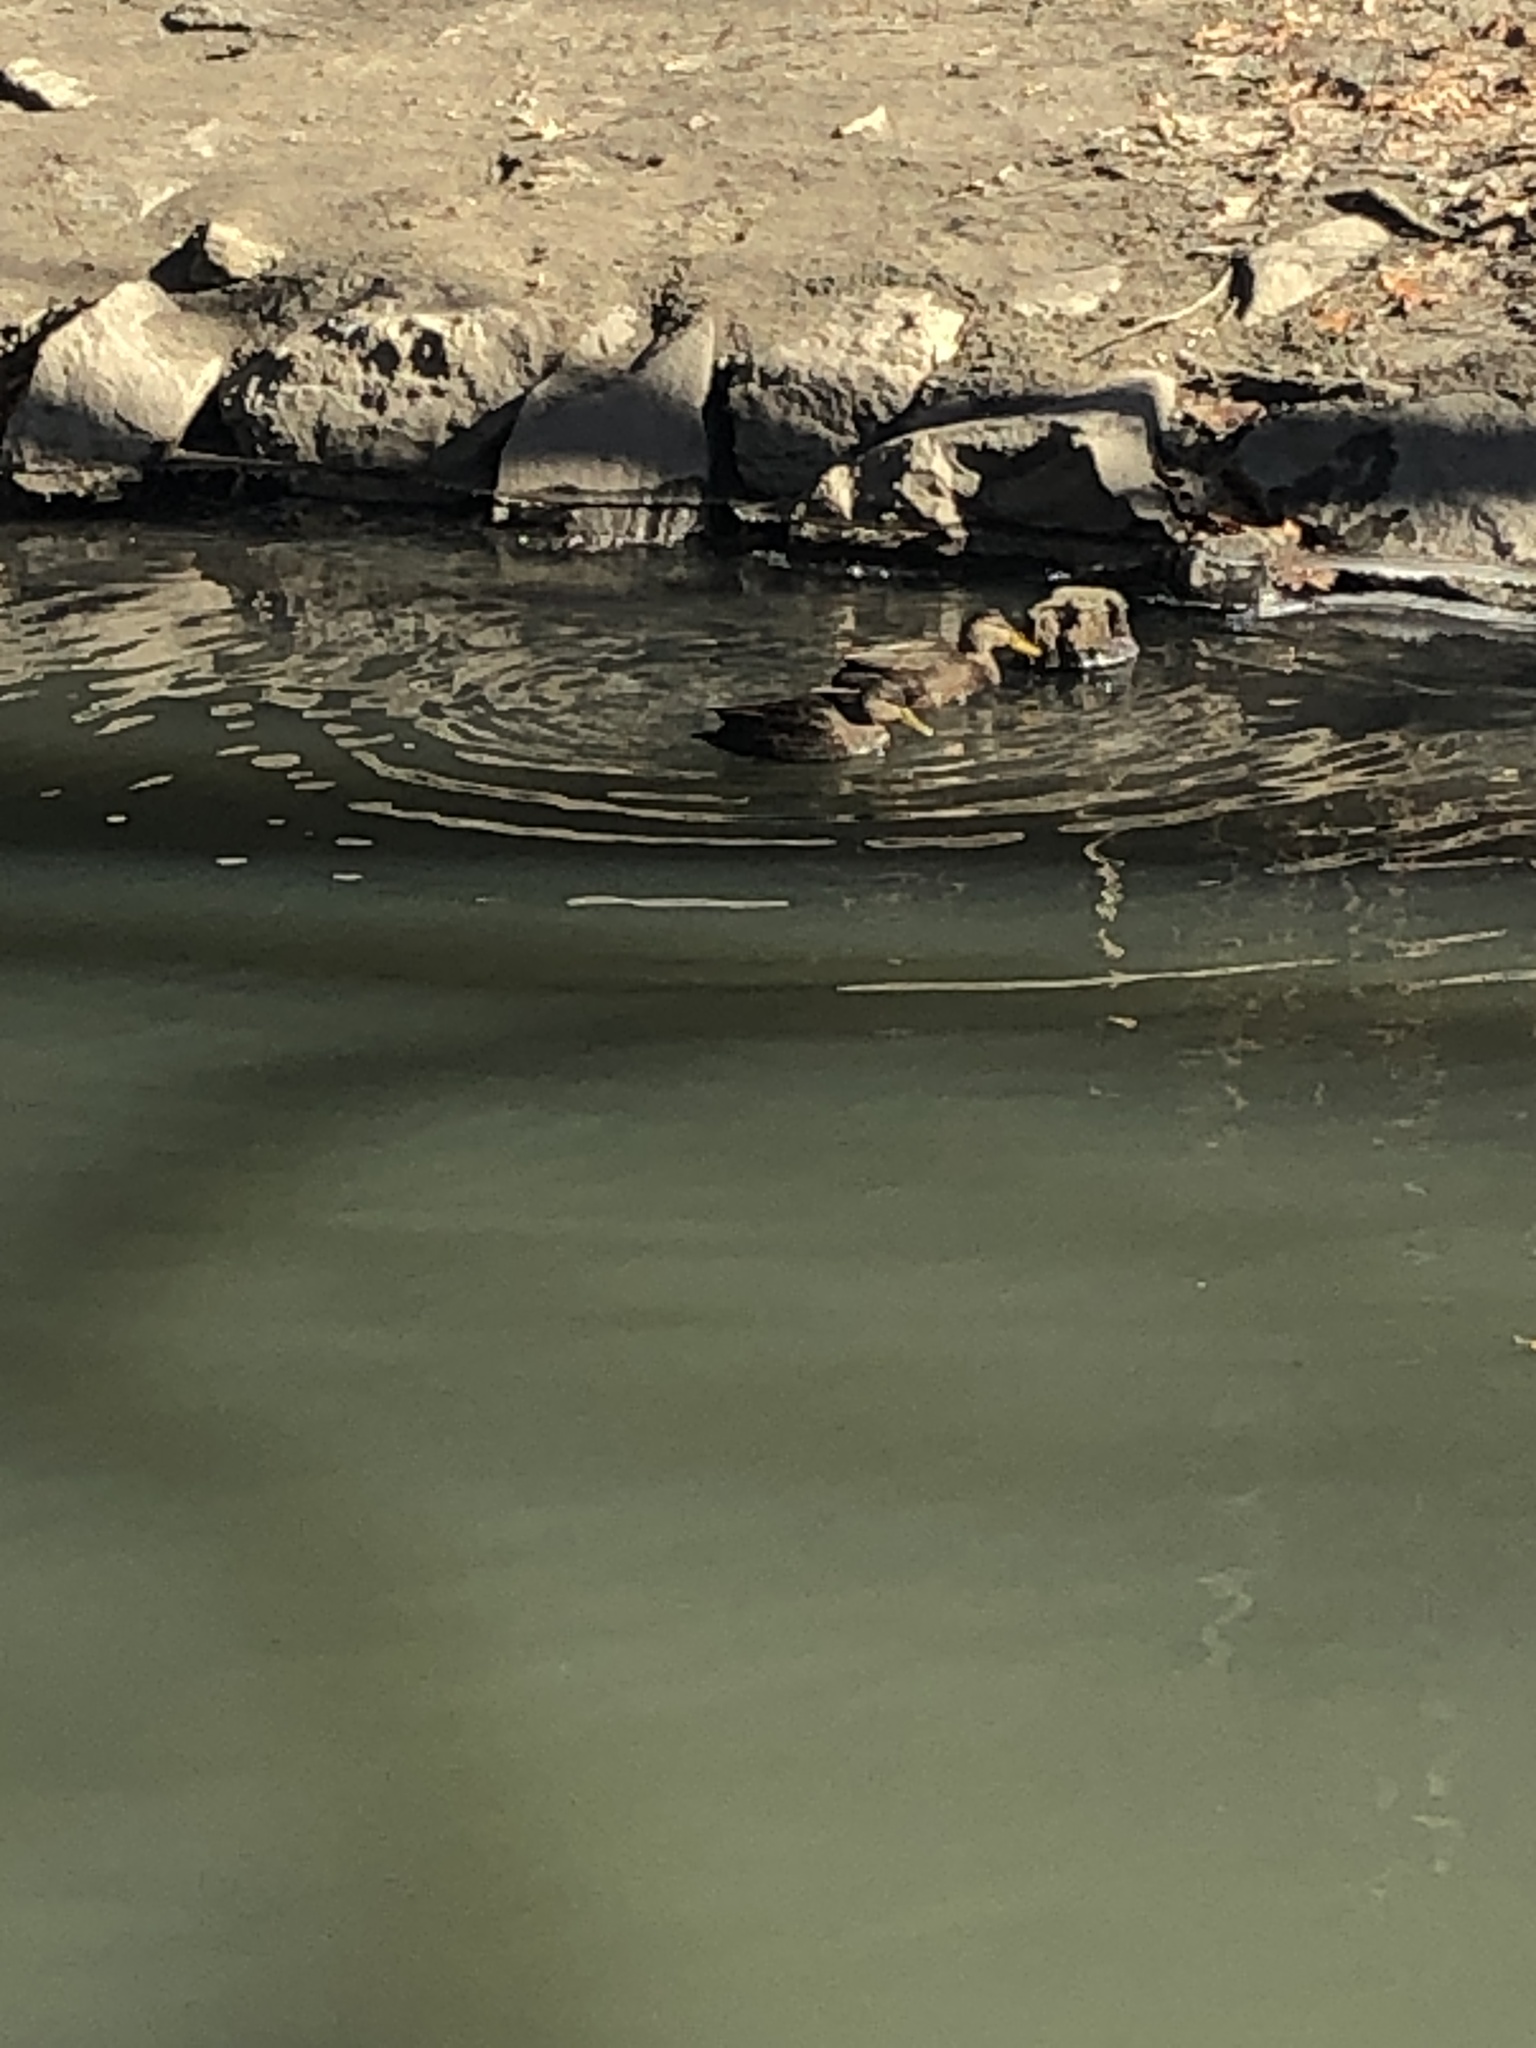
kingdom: Animalia
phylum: Chordata
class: Aves
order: Anseriformes
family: Anatidae
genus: Anas
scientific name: Anas rubripes
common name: American black duck
